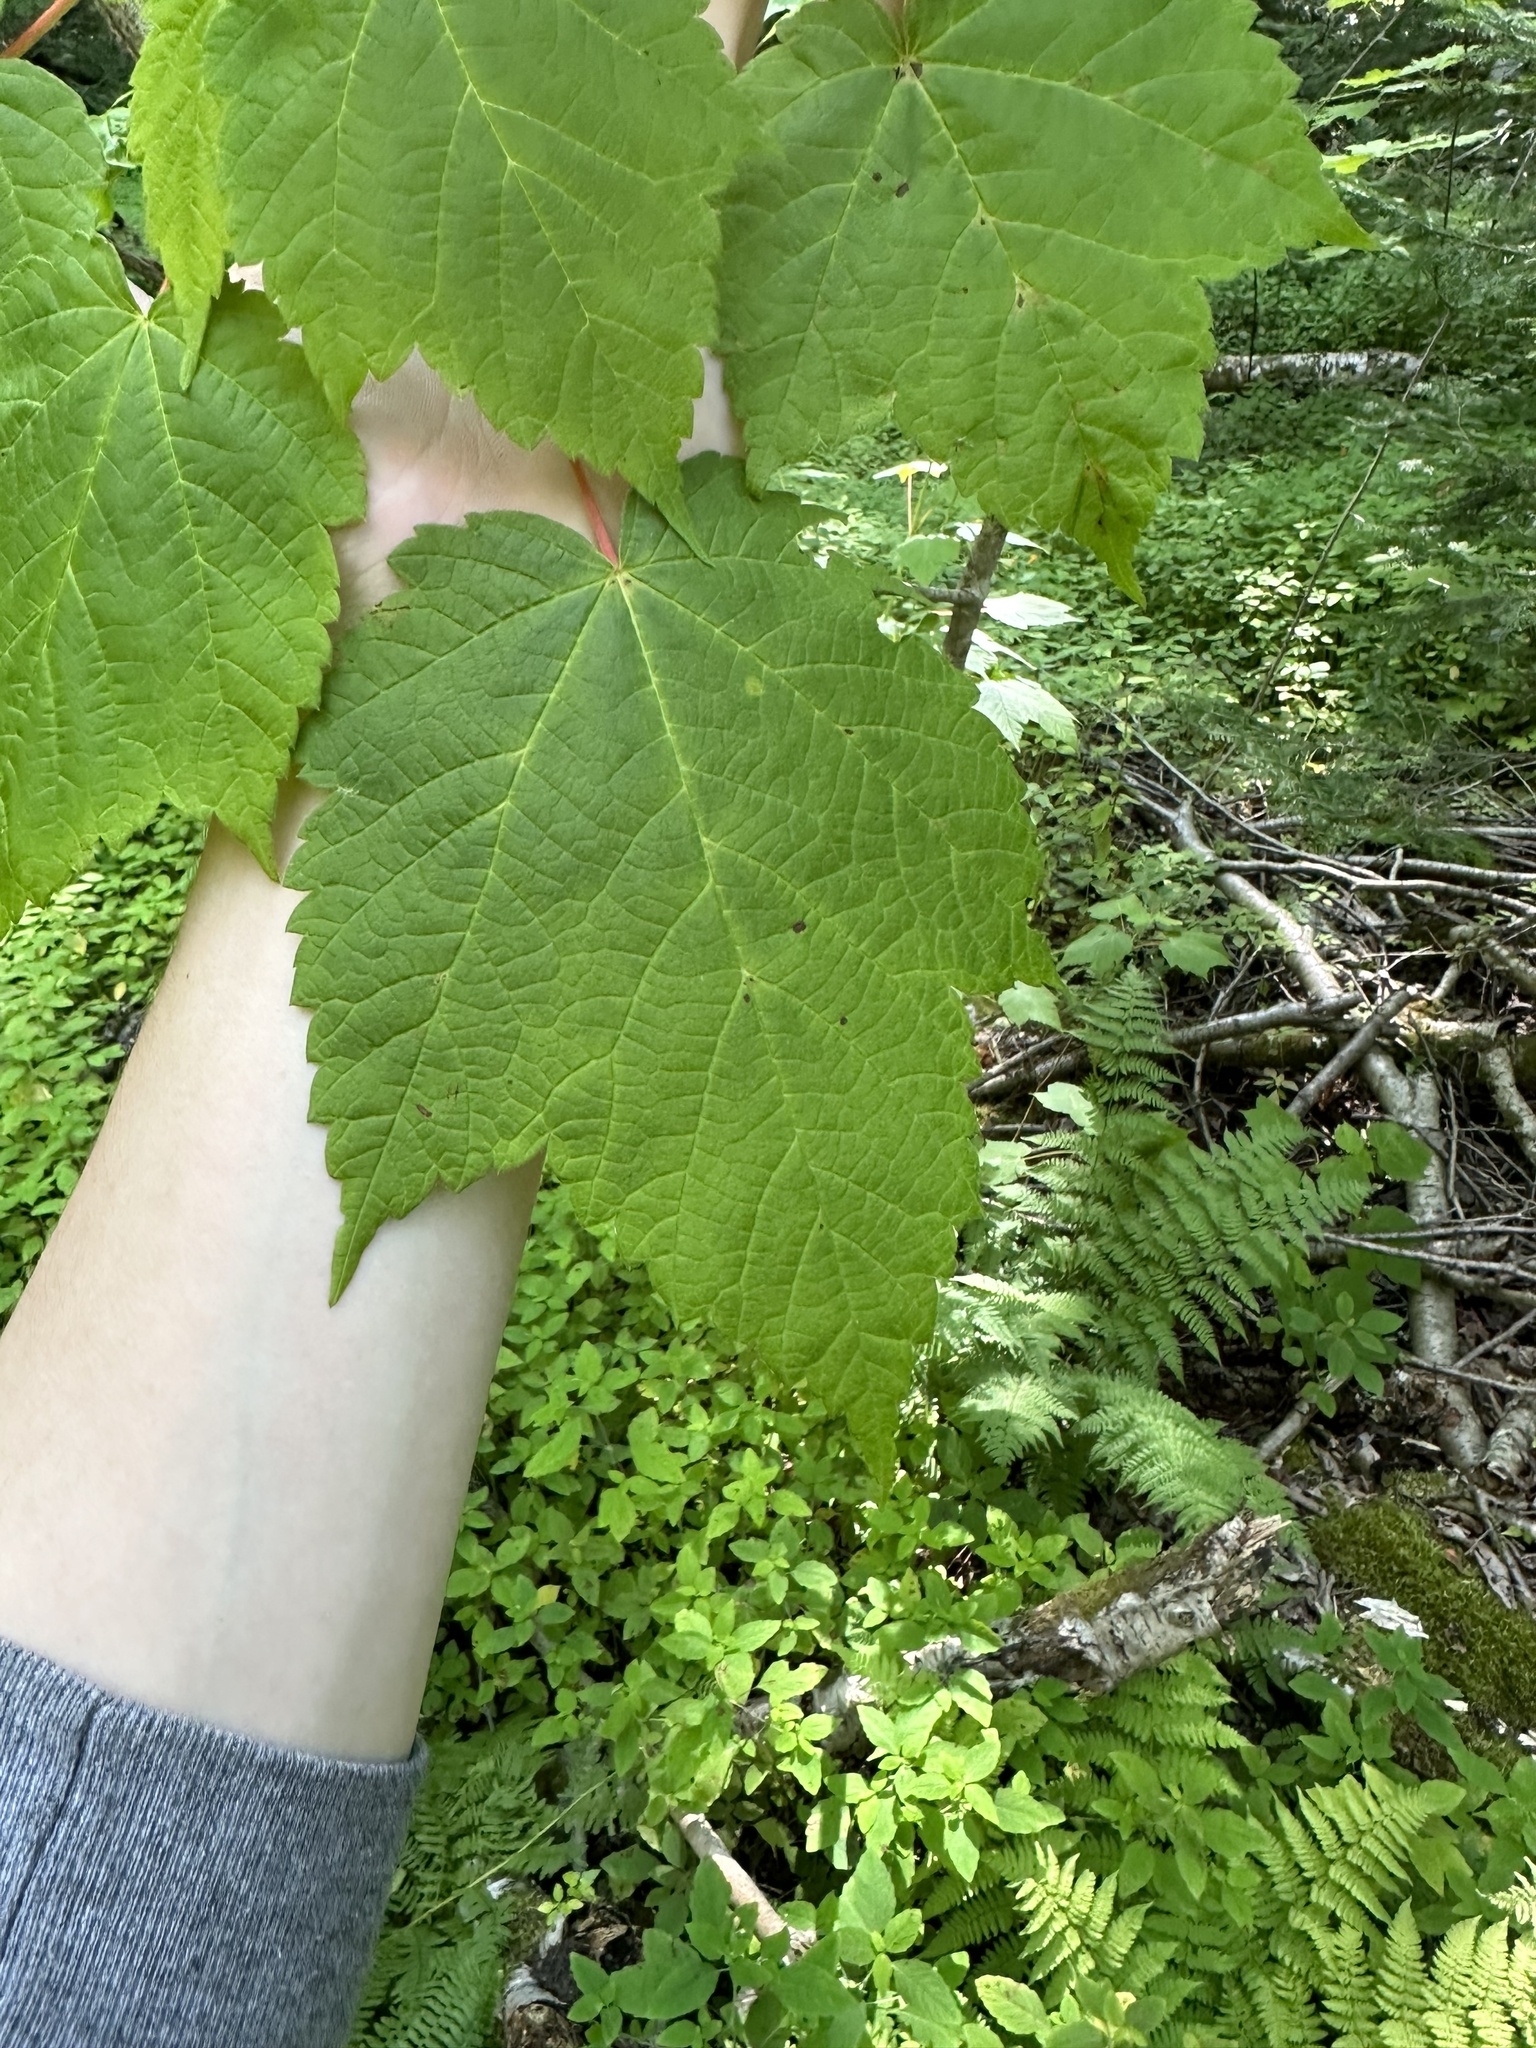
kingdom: Plantae
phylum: Tracheophyta
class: Magnoliopsida
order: Sapindales
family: Sapindaceae
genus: Acer
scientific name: Acer spicatum
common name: Mountain maple
